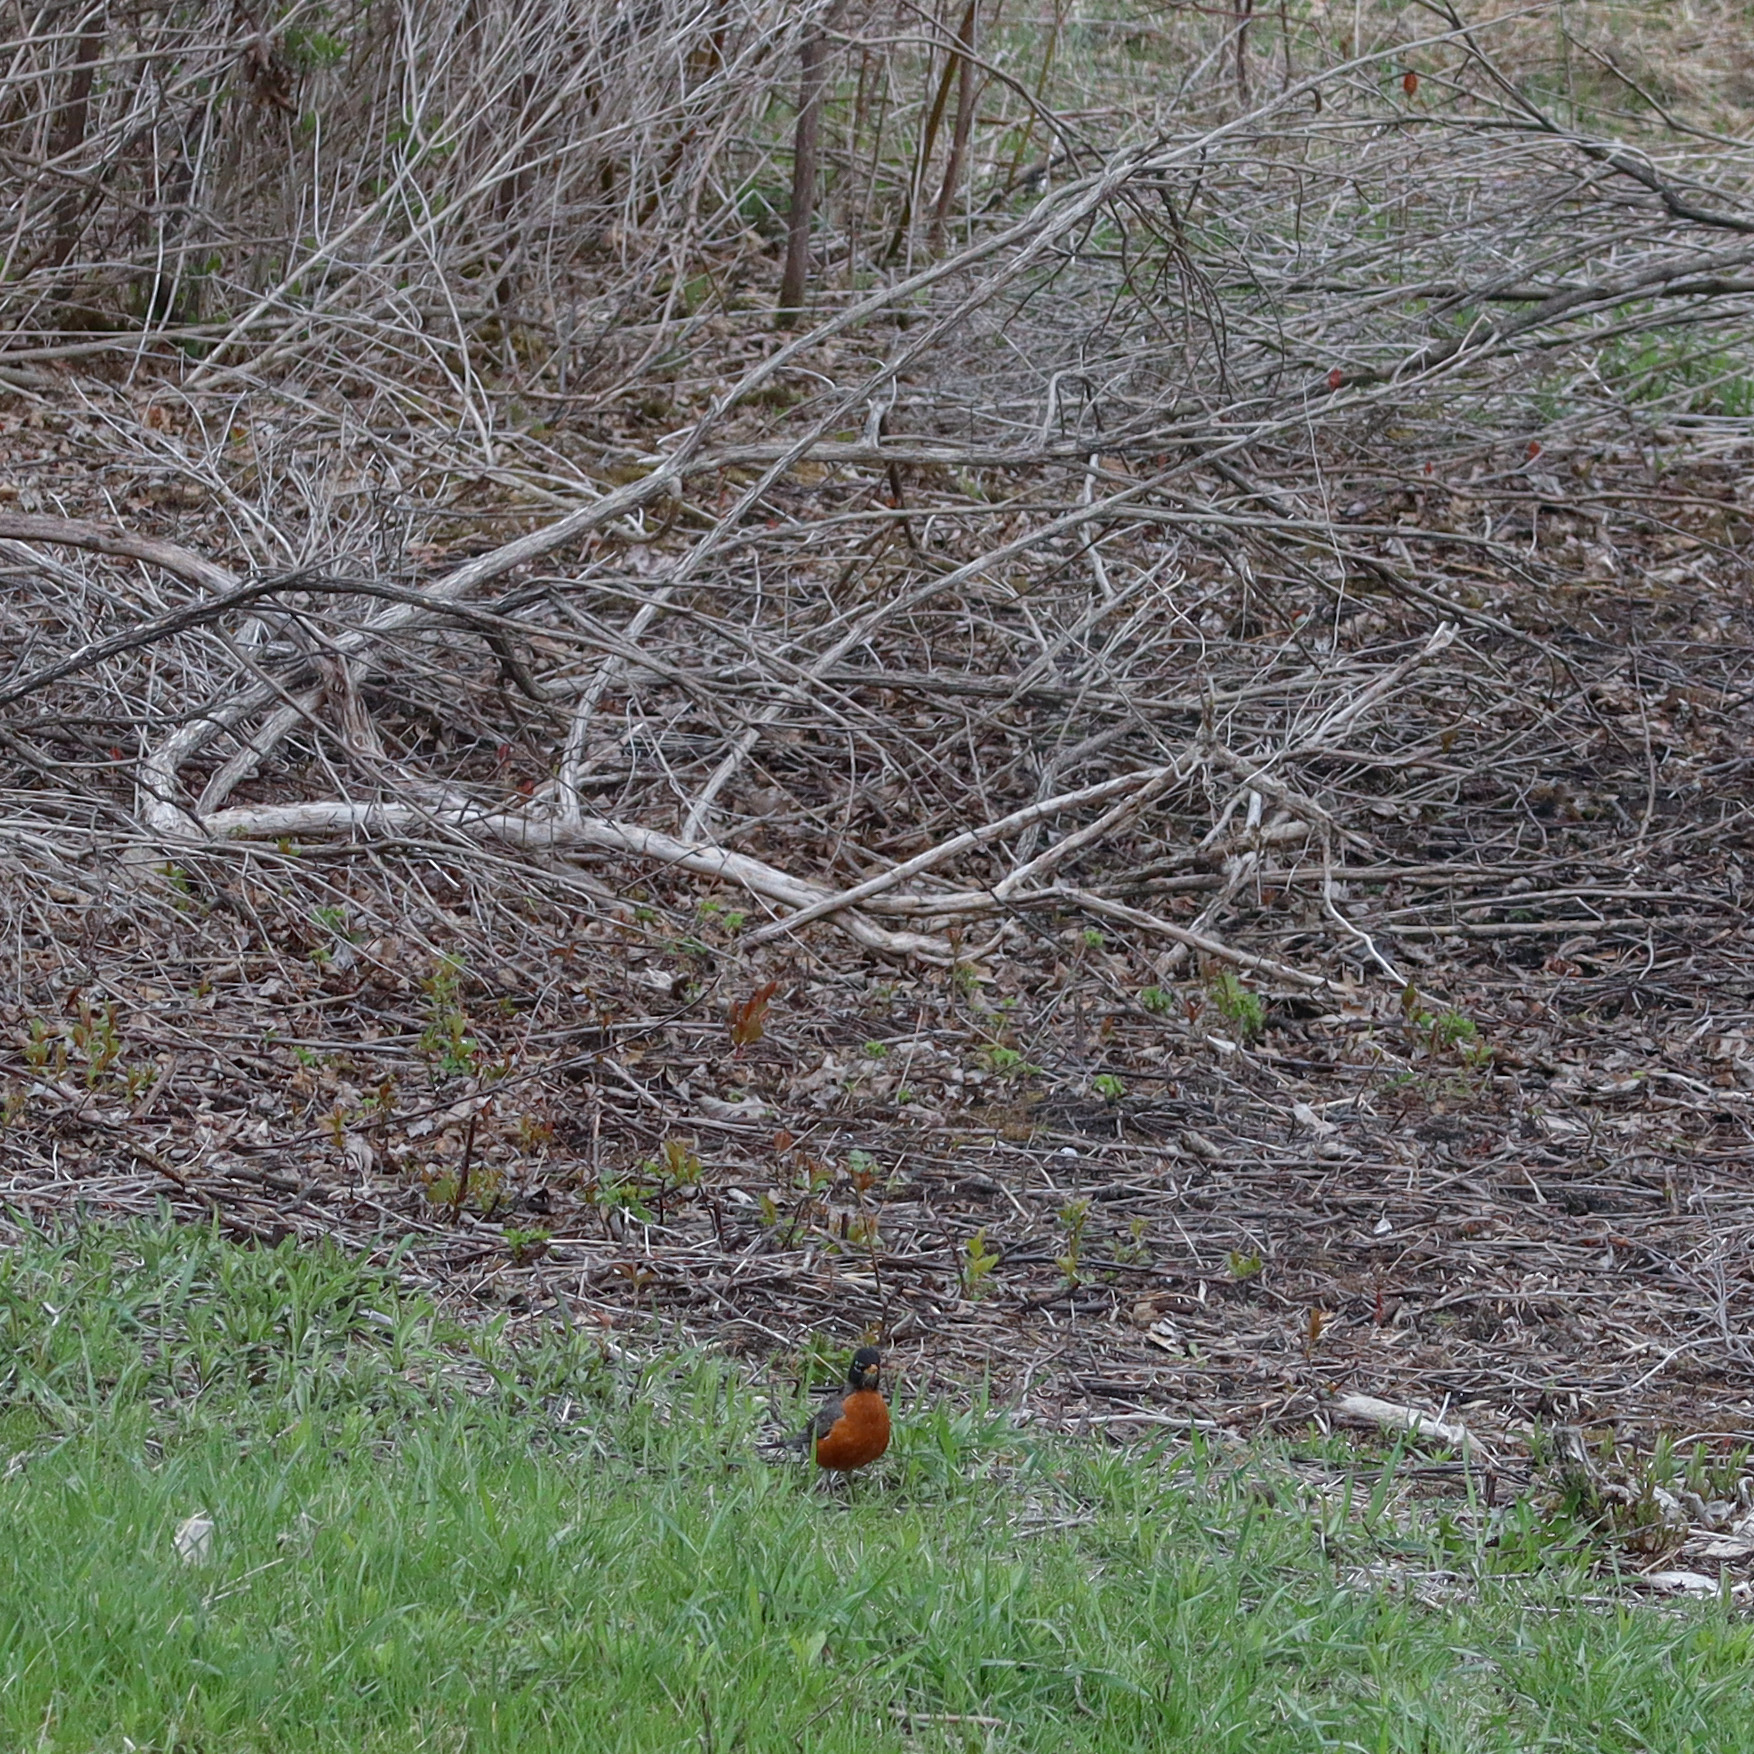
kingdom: Animalia
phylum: Chordata
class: Aves
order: Passeriformes
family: Turdidae
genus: Turdus
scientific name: Turdus migratorius
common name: American robin
